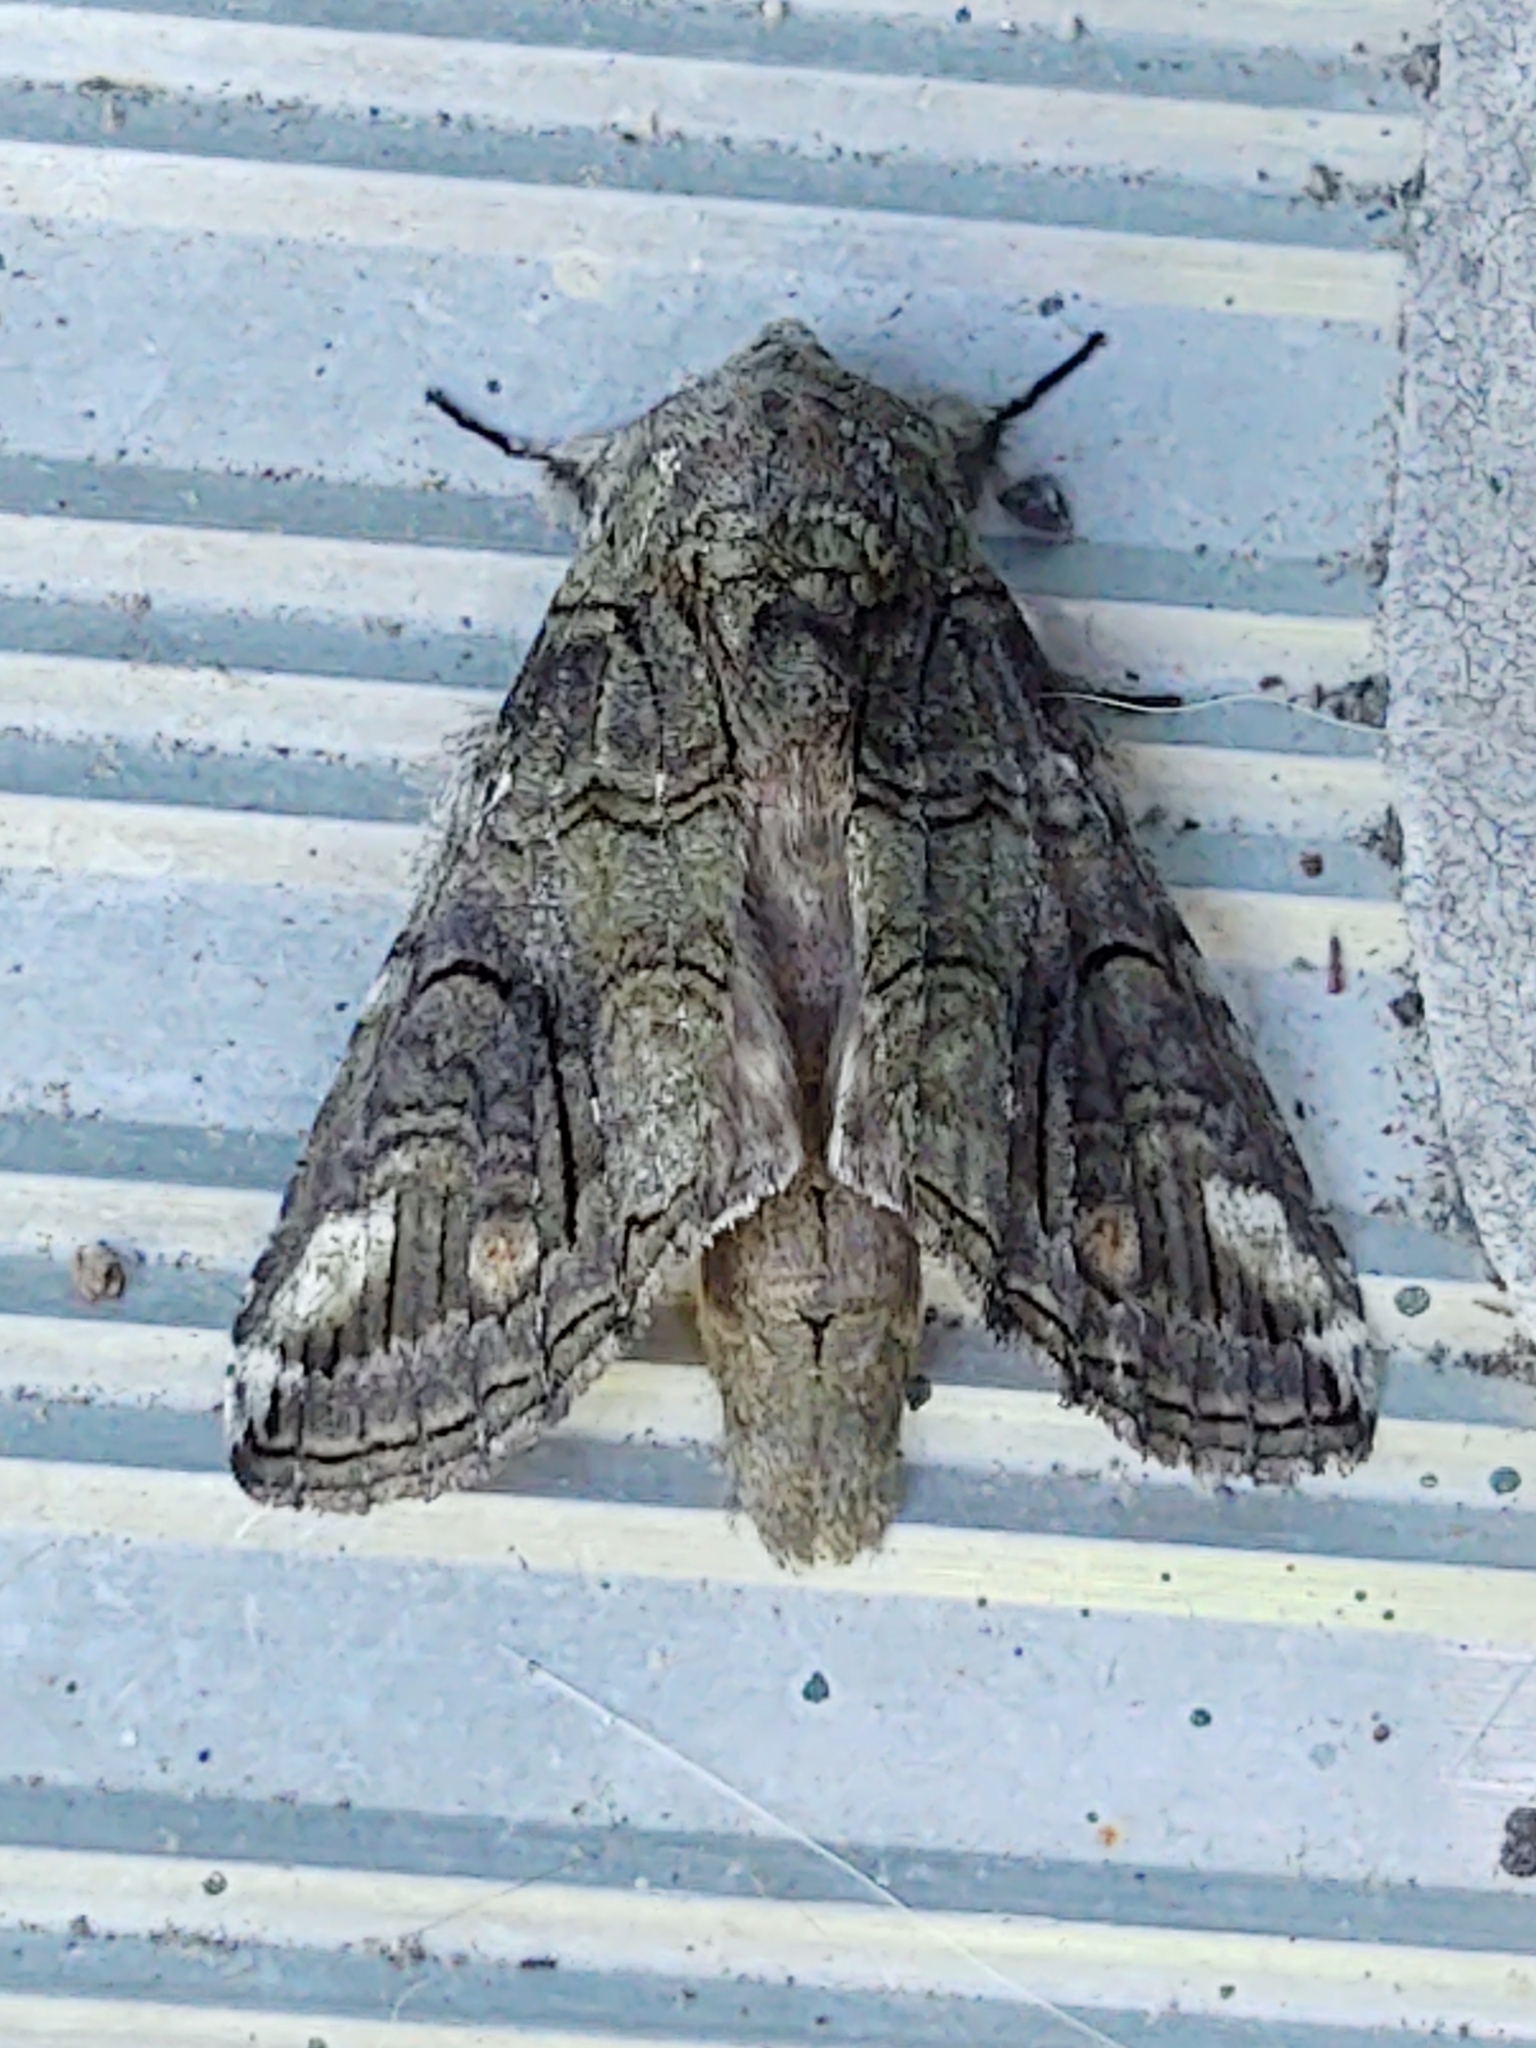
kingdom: Animalia
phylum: Arthropoda
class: Insecta
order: Lepidoptera
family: Notodontidae
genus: Heterocampa
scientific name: Heterocampa obliqua
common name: Oblique heterocampa
